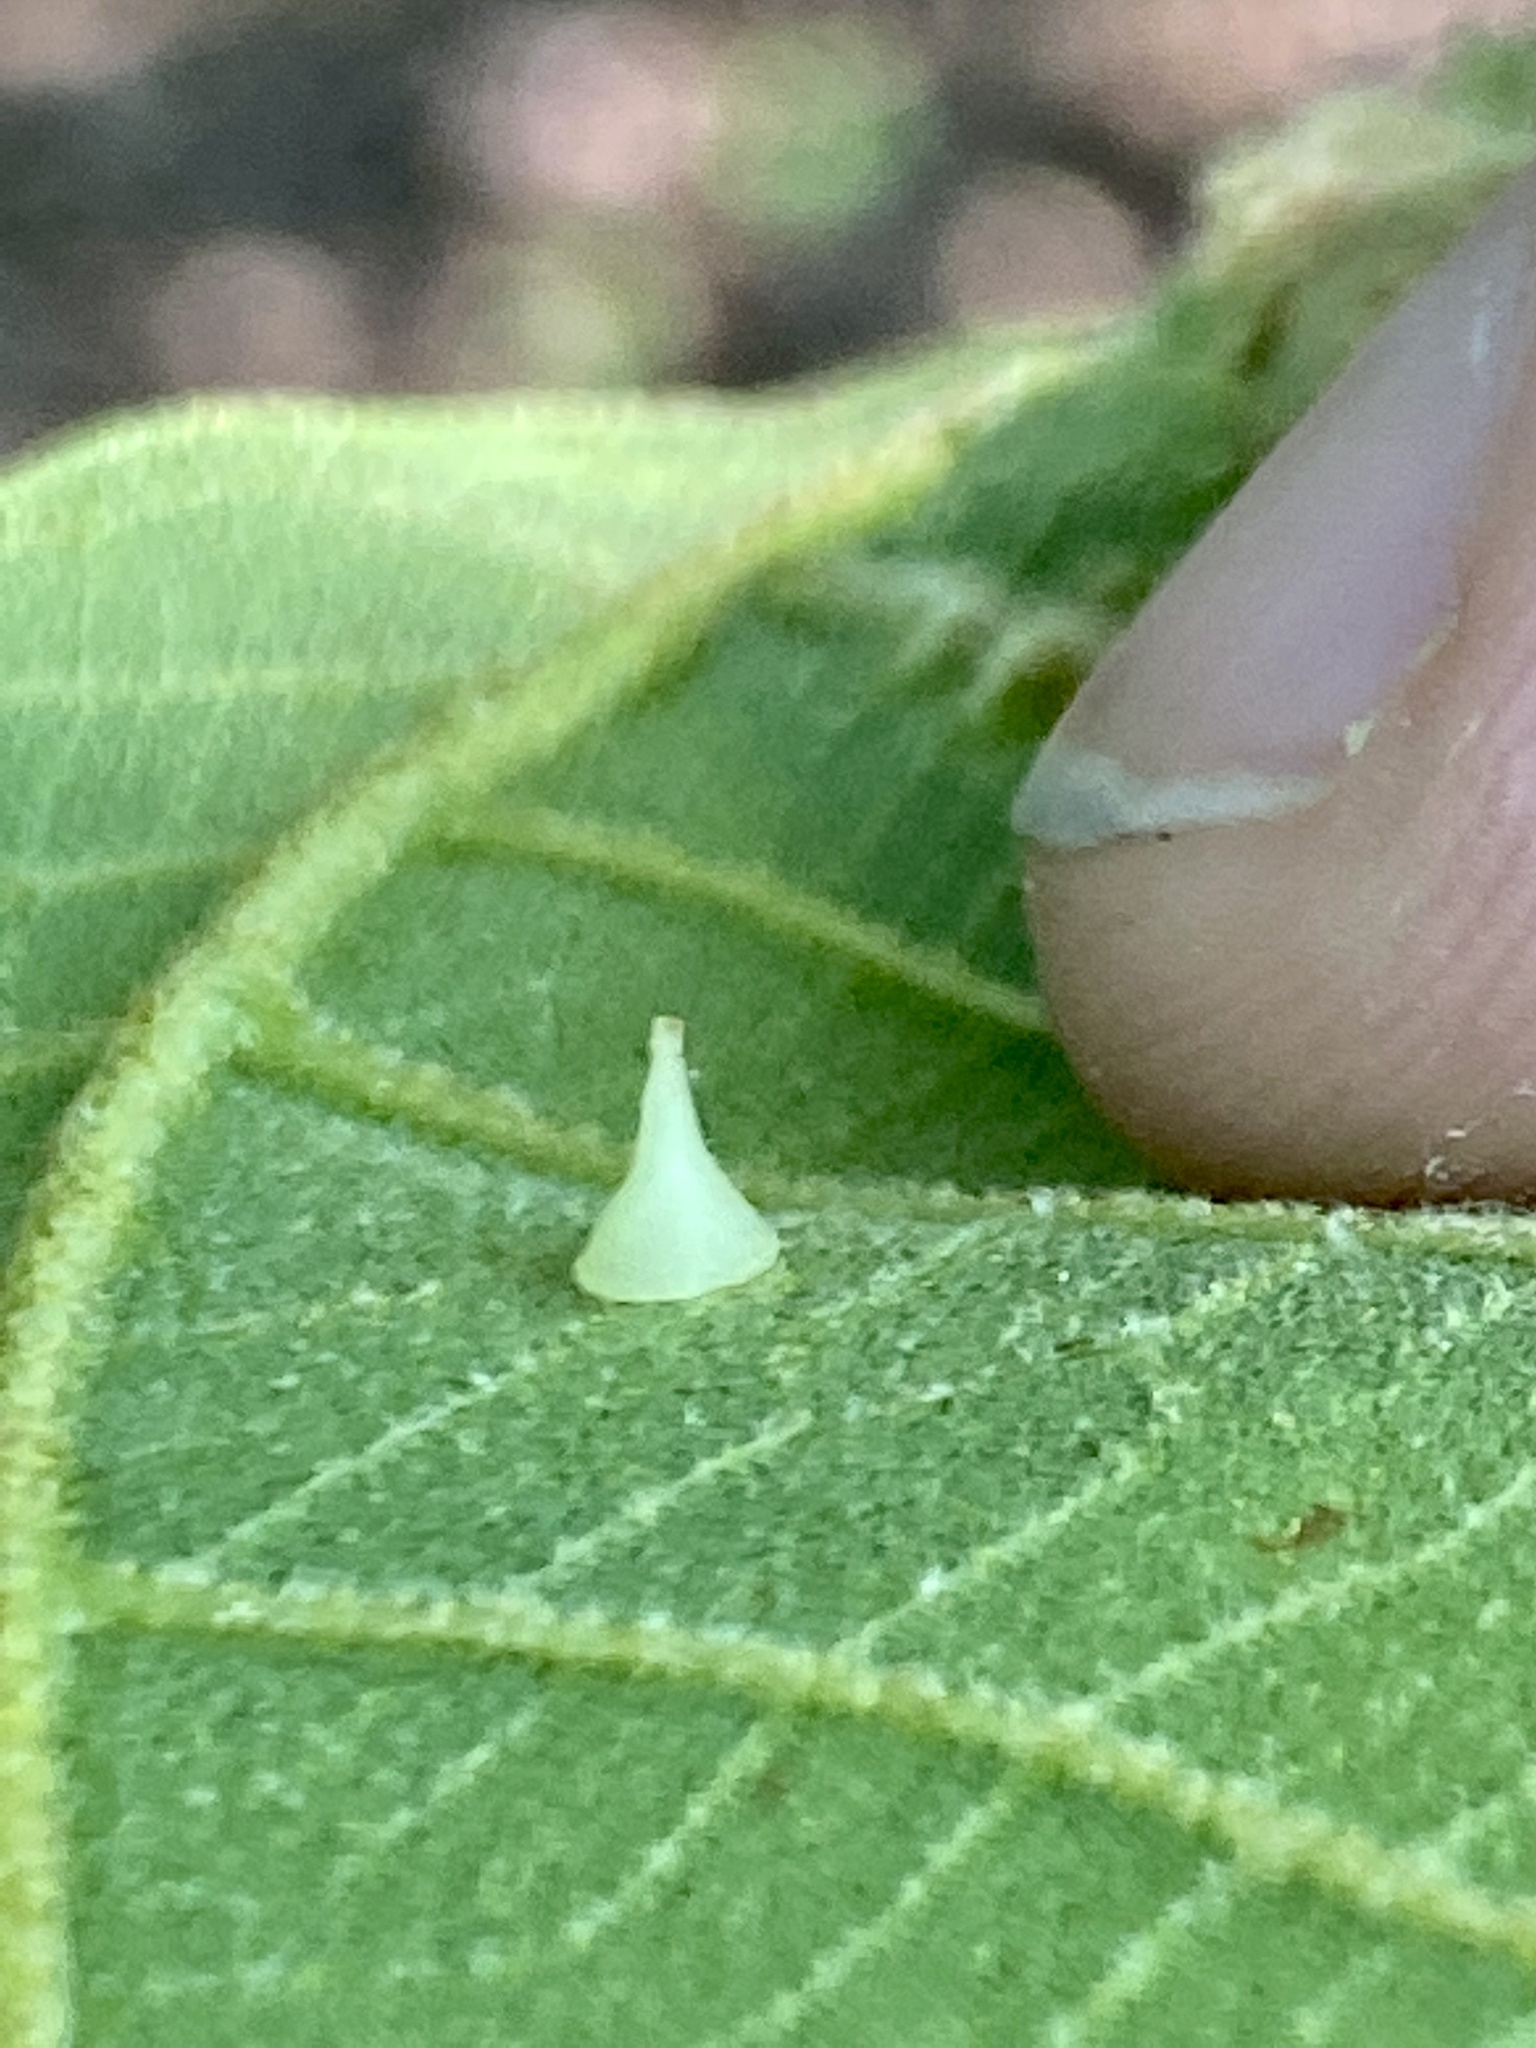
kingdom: Animalia
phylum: Arthropoda
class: Insecta
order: Diptera
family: Cecidomyiidae
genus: Caryomyia
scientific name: Caryomyia sanguinolenta
